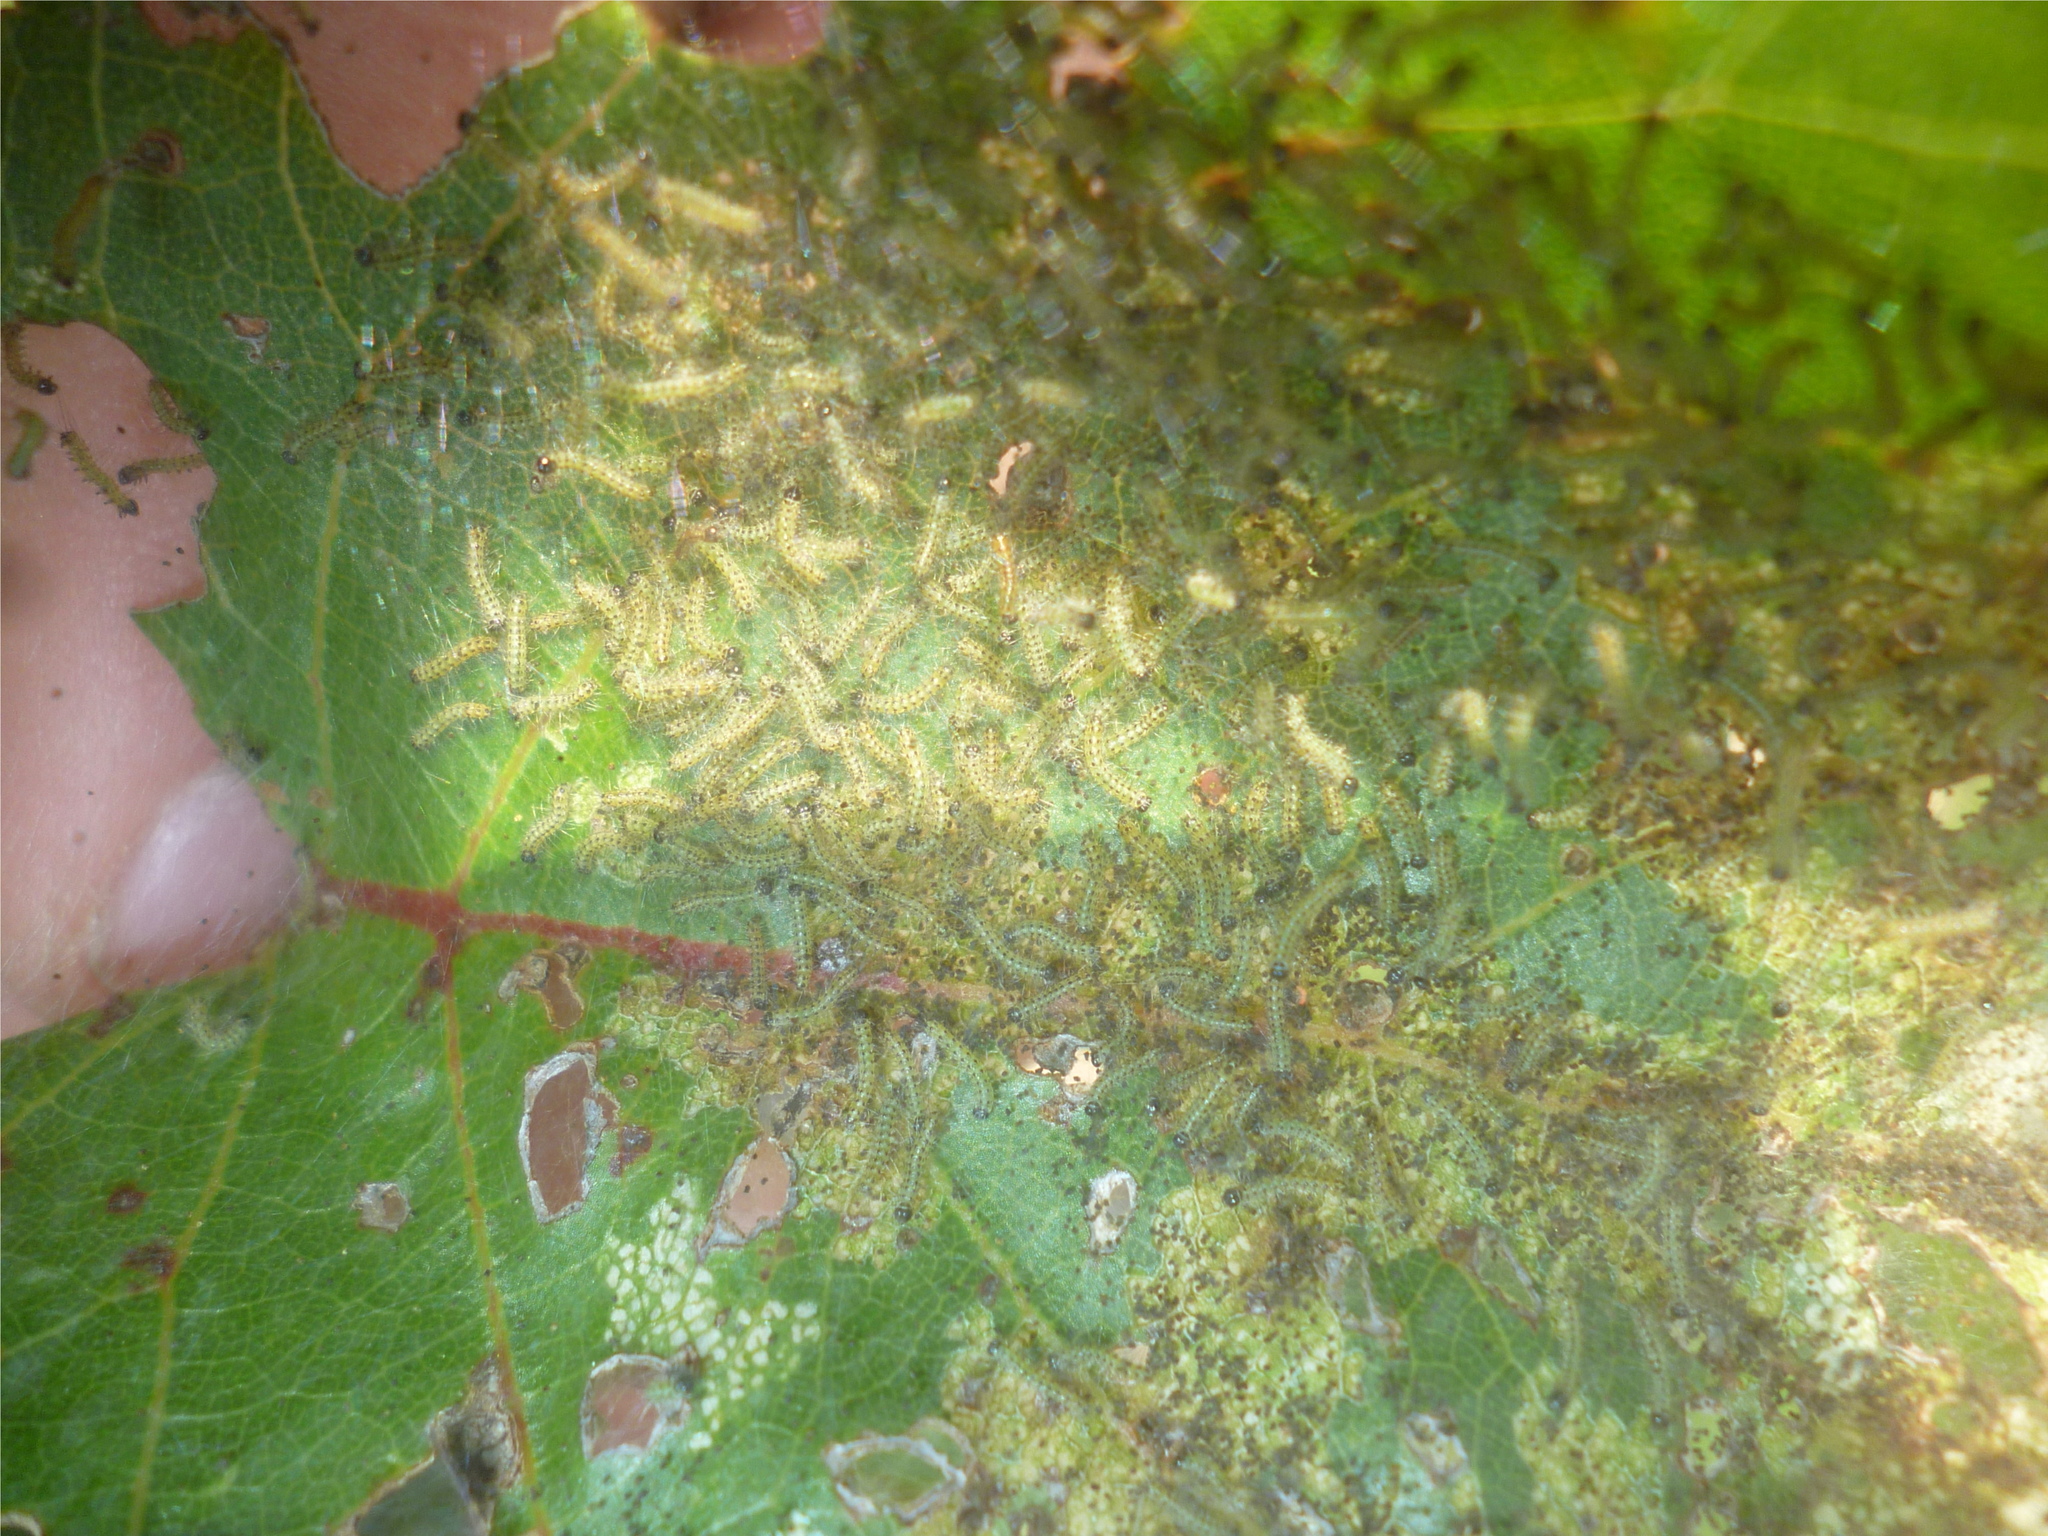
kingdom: Animalia
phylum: Arthropoda
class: Insecta
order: Lepidoptera
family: Erebidae
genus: Hyphantria
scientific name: Hyphantria cunea
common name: American white moth
